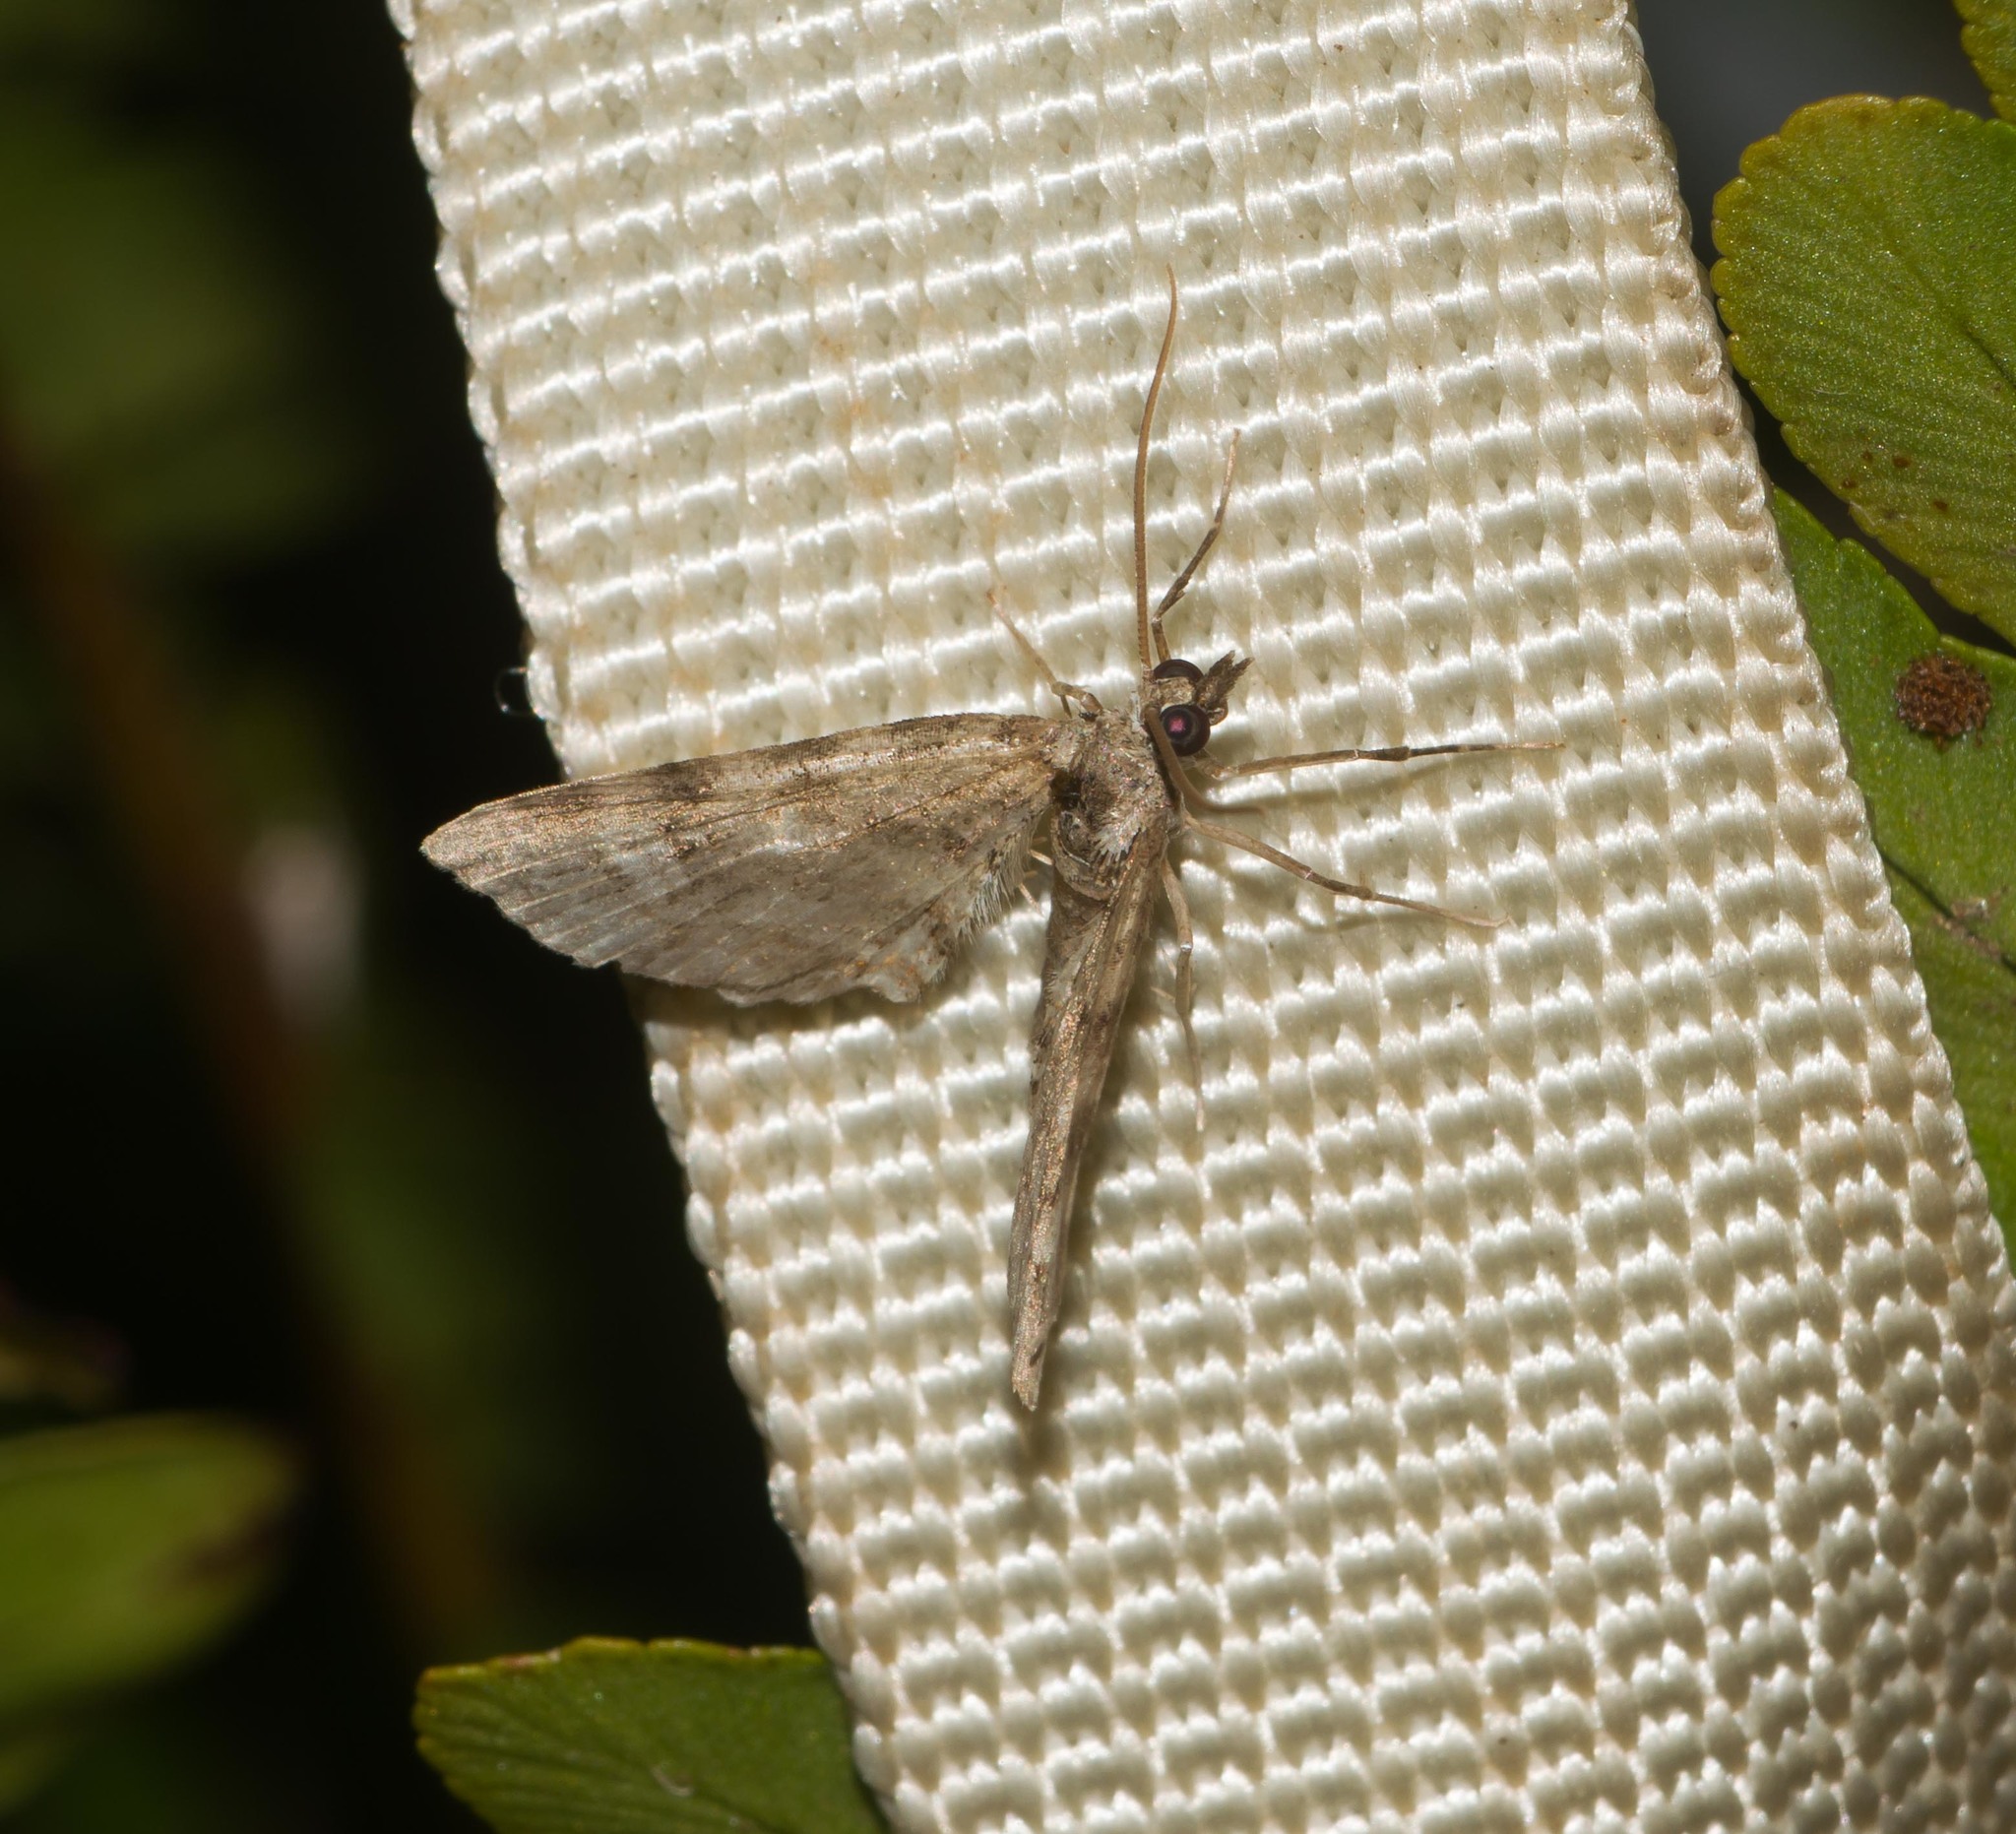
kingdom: Animalia
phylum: Arthropoda
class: Insecta
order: Lepidoptera
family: Geometridae
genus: Eupithecia
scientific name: Eupithecia monticolens
